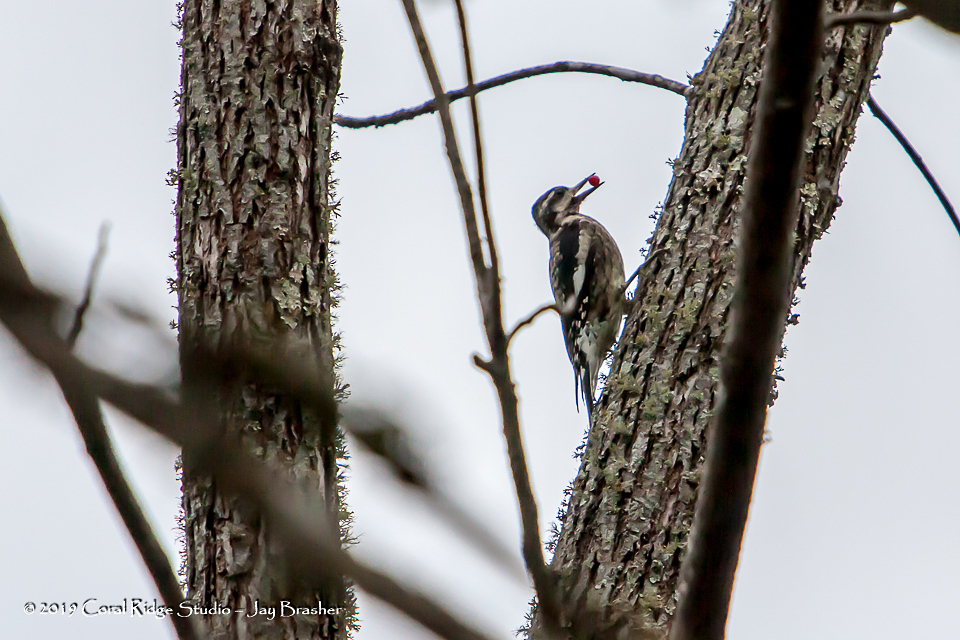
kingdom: Animalia
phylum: Chordata
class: Aves
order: Piciformes
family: Picidae
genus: Sphyrapicus
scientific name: Sphyrapicus varius
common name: Yellow-bellied sapsucker
